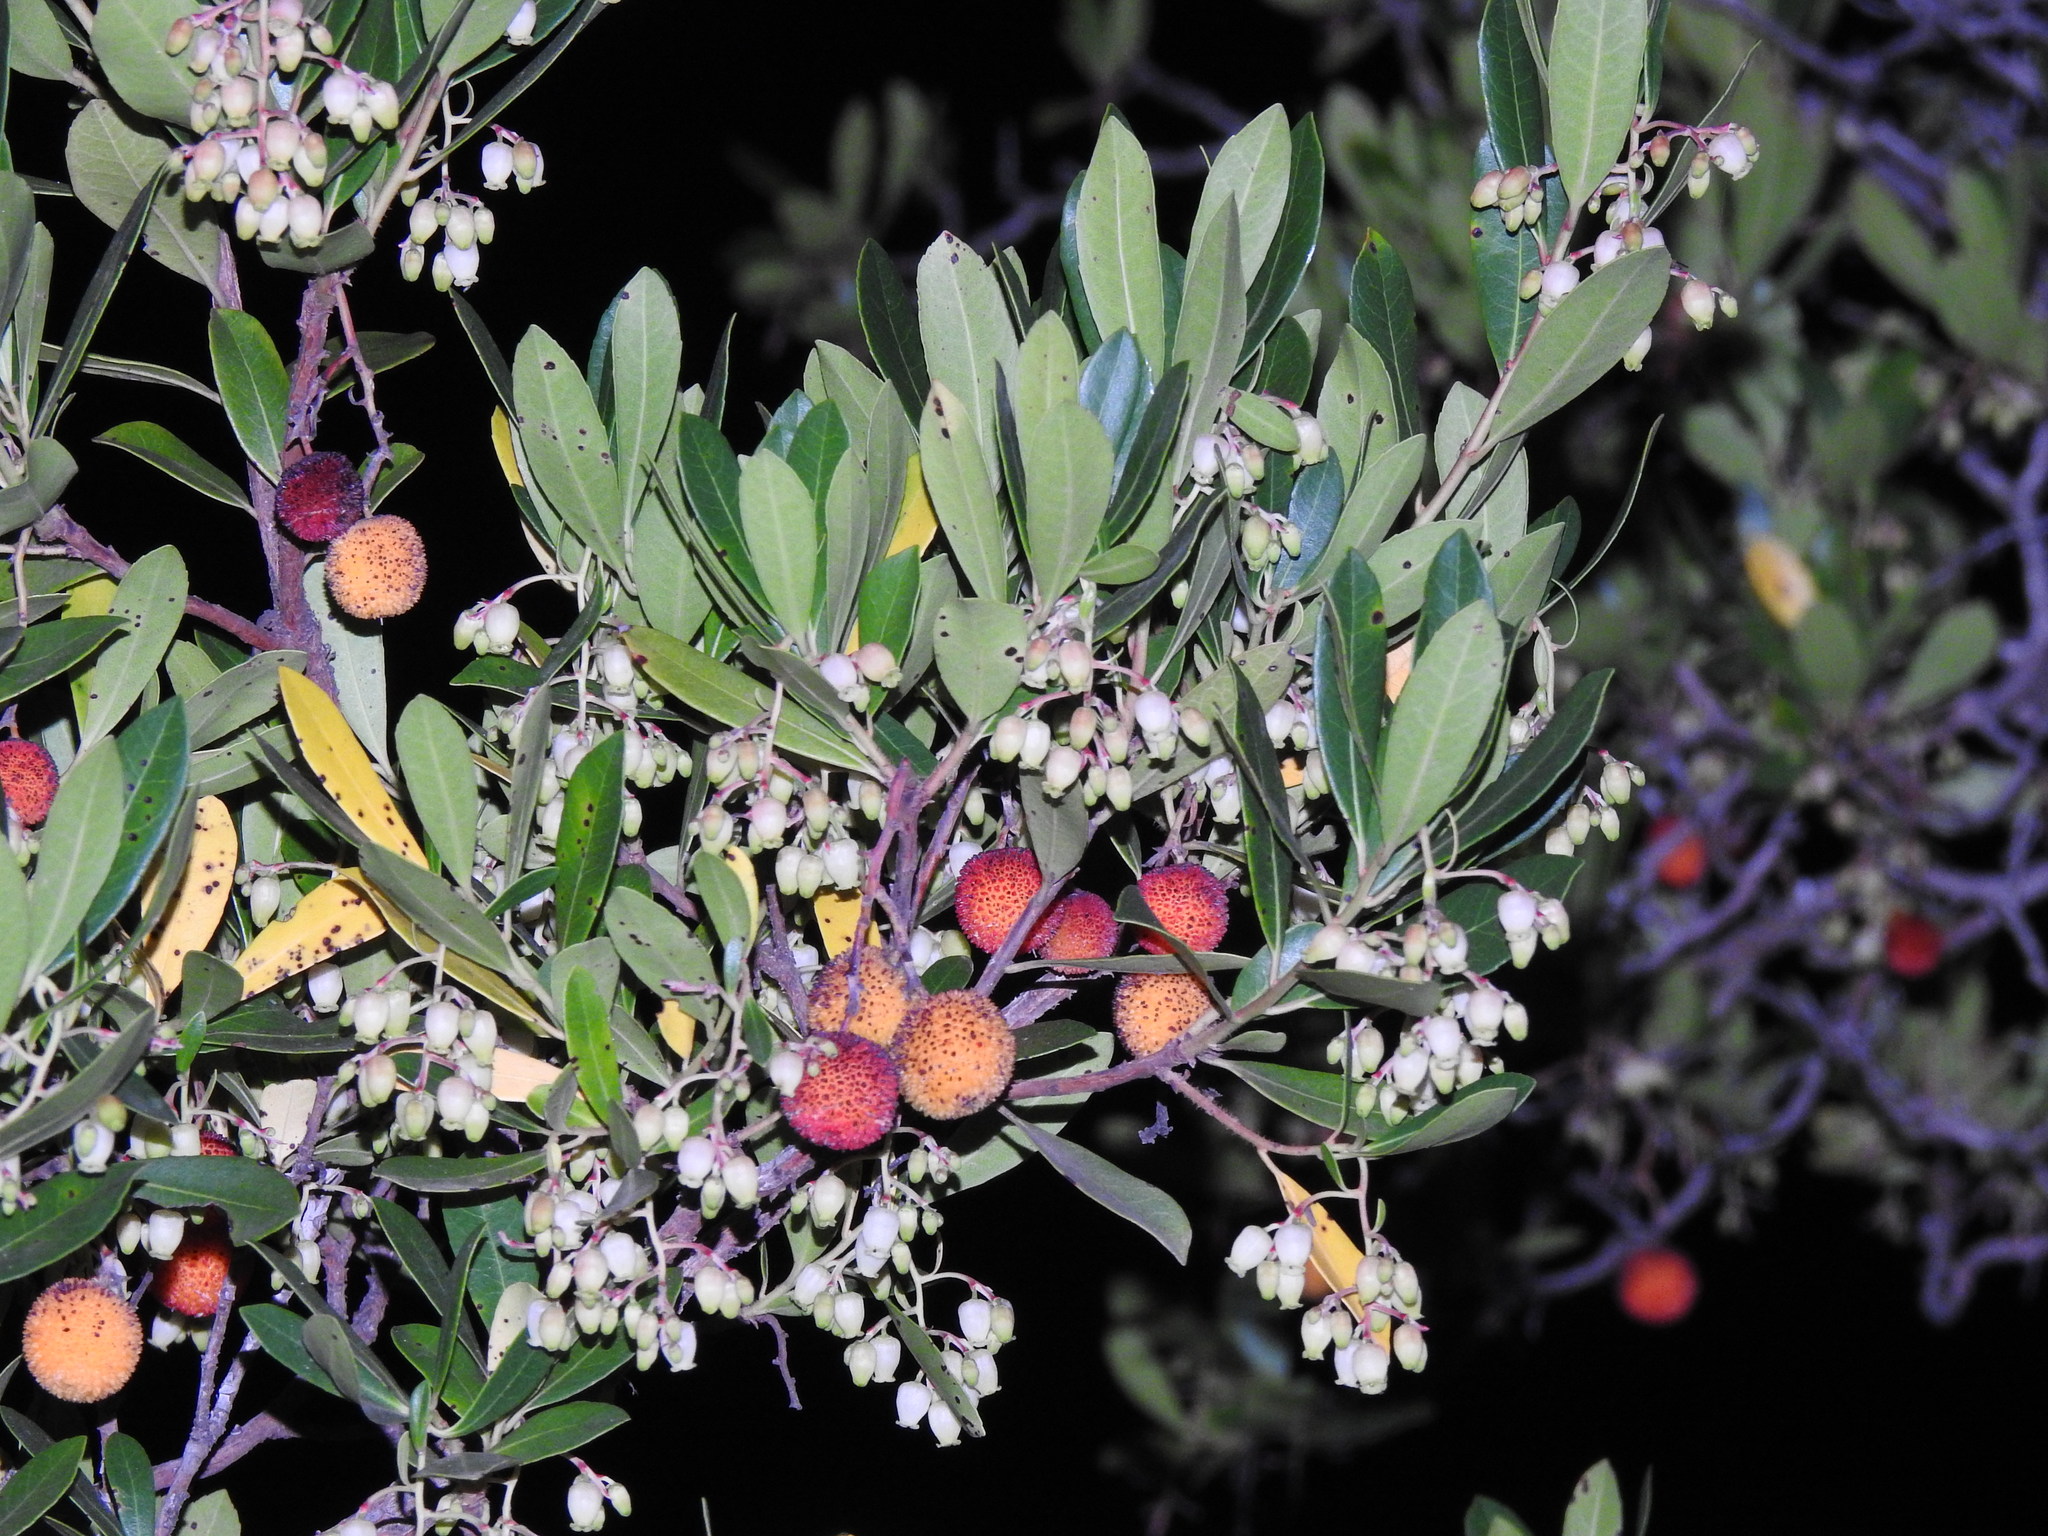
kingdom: Plantae
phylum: Tracheophyta
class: Magnoliopsida
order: Ericales
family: Ericaceae
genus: Arbutus
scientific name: Arbutus unedo
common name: Strawberry-tree
